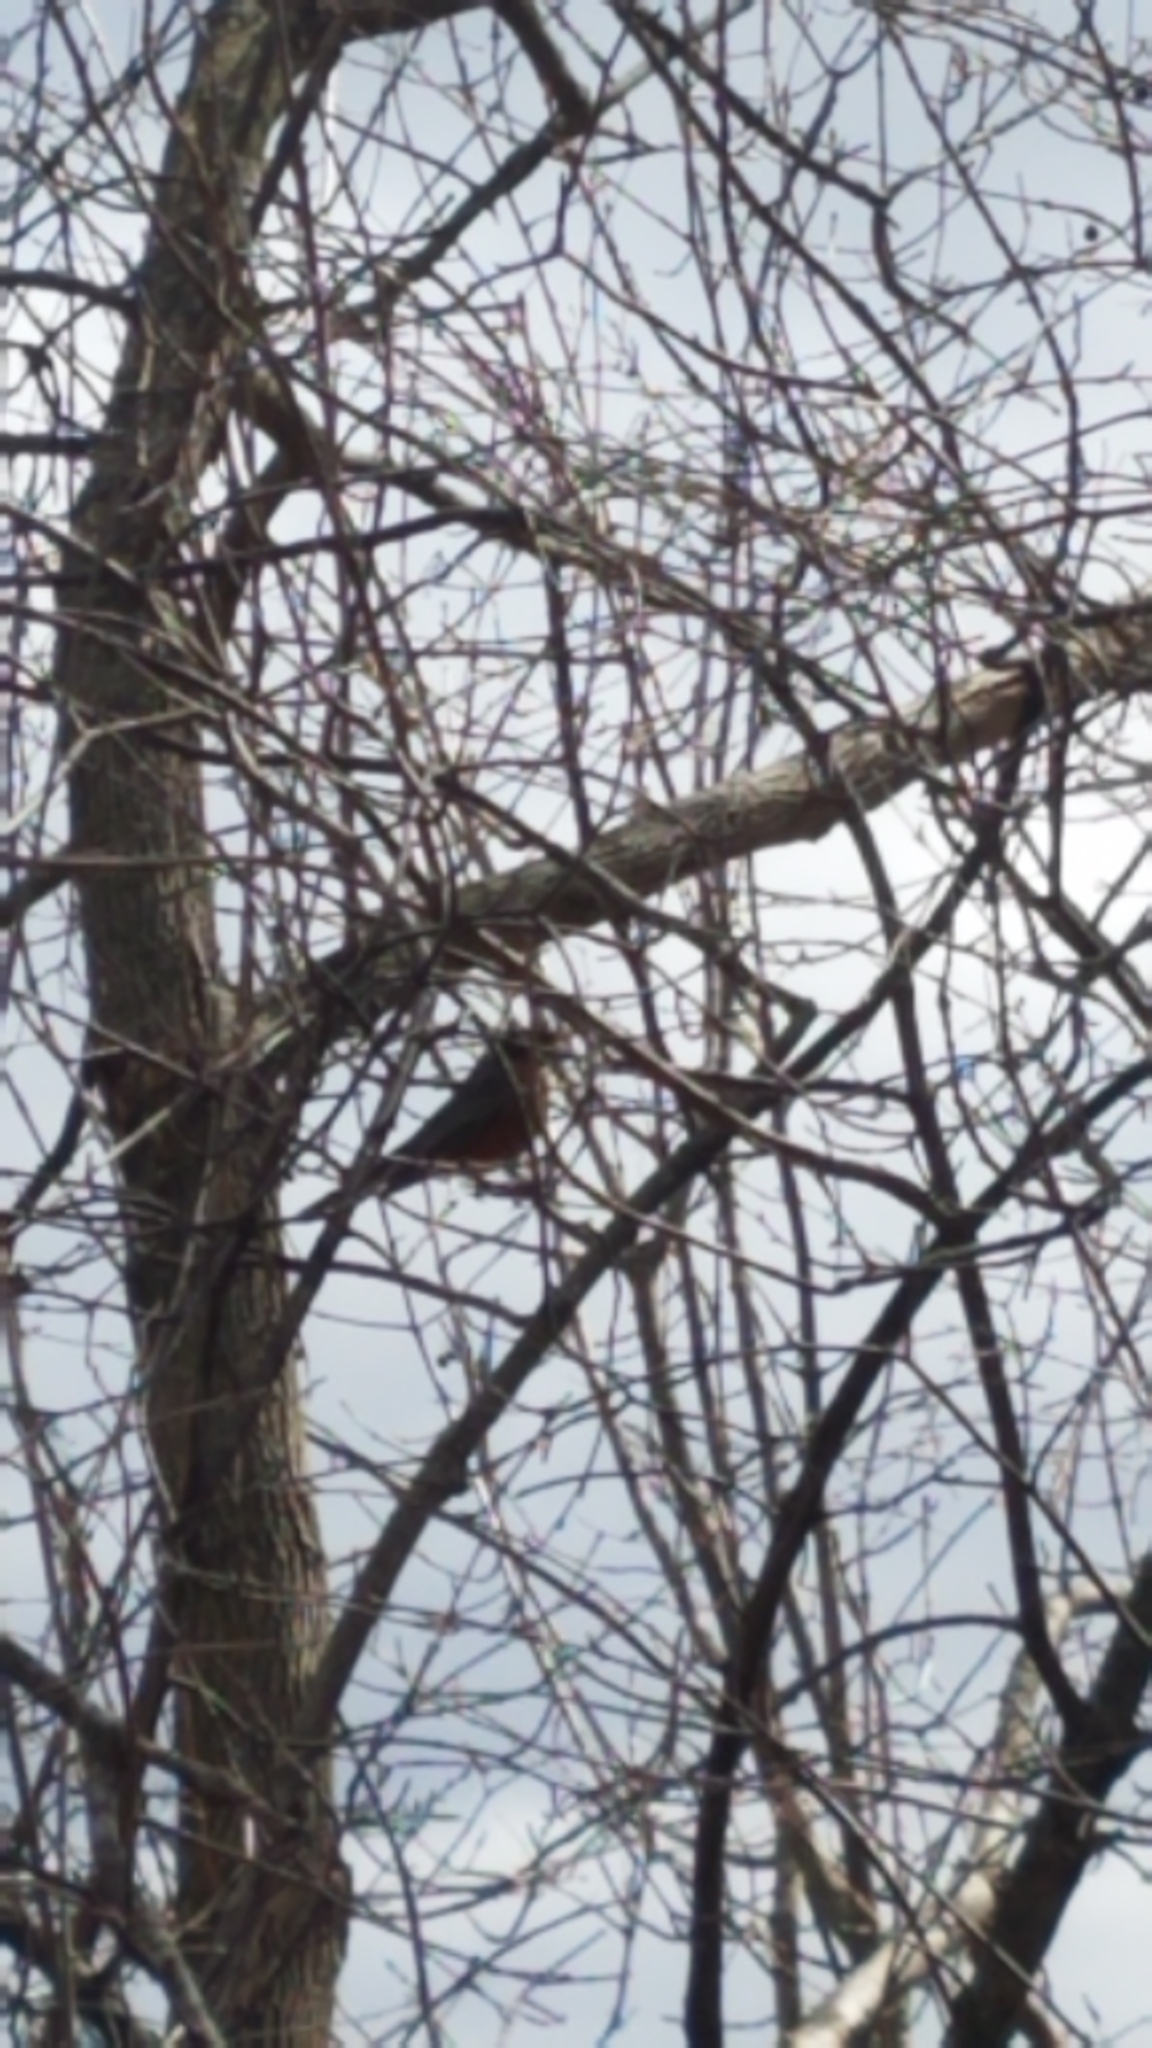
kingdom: Animalia
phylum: Chordata
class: Aves
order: Passeriformes
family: Turdidae
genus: Turdus
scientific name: Turdus migratorius
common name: American robin
